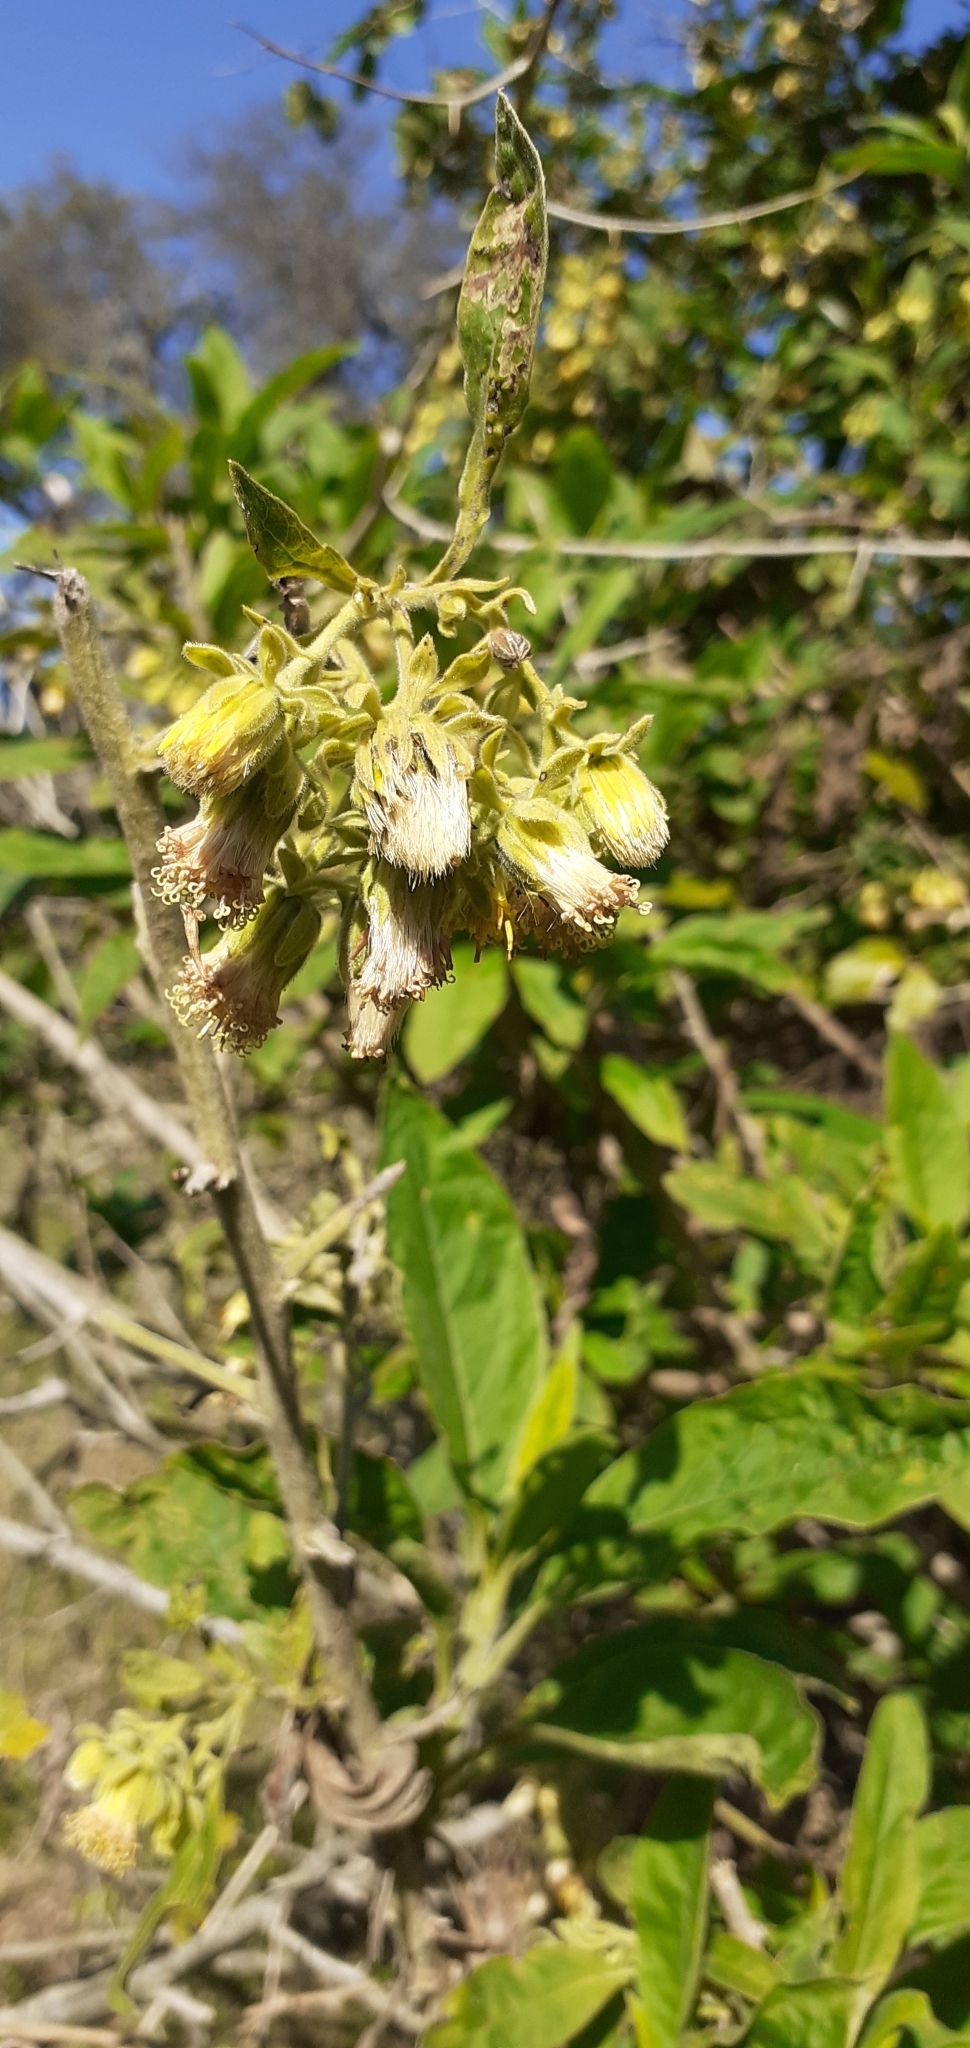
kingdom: Plantae
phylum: Tracheophyta
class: Magnoliopsida
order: Asterales
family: Asteraceae
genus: Trixis
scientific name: Trixis praestans
